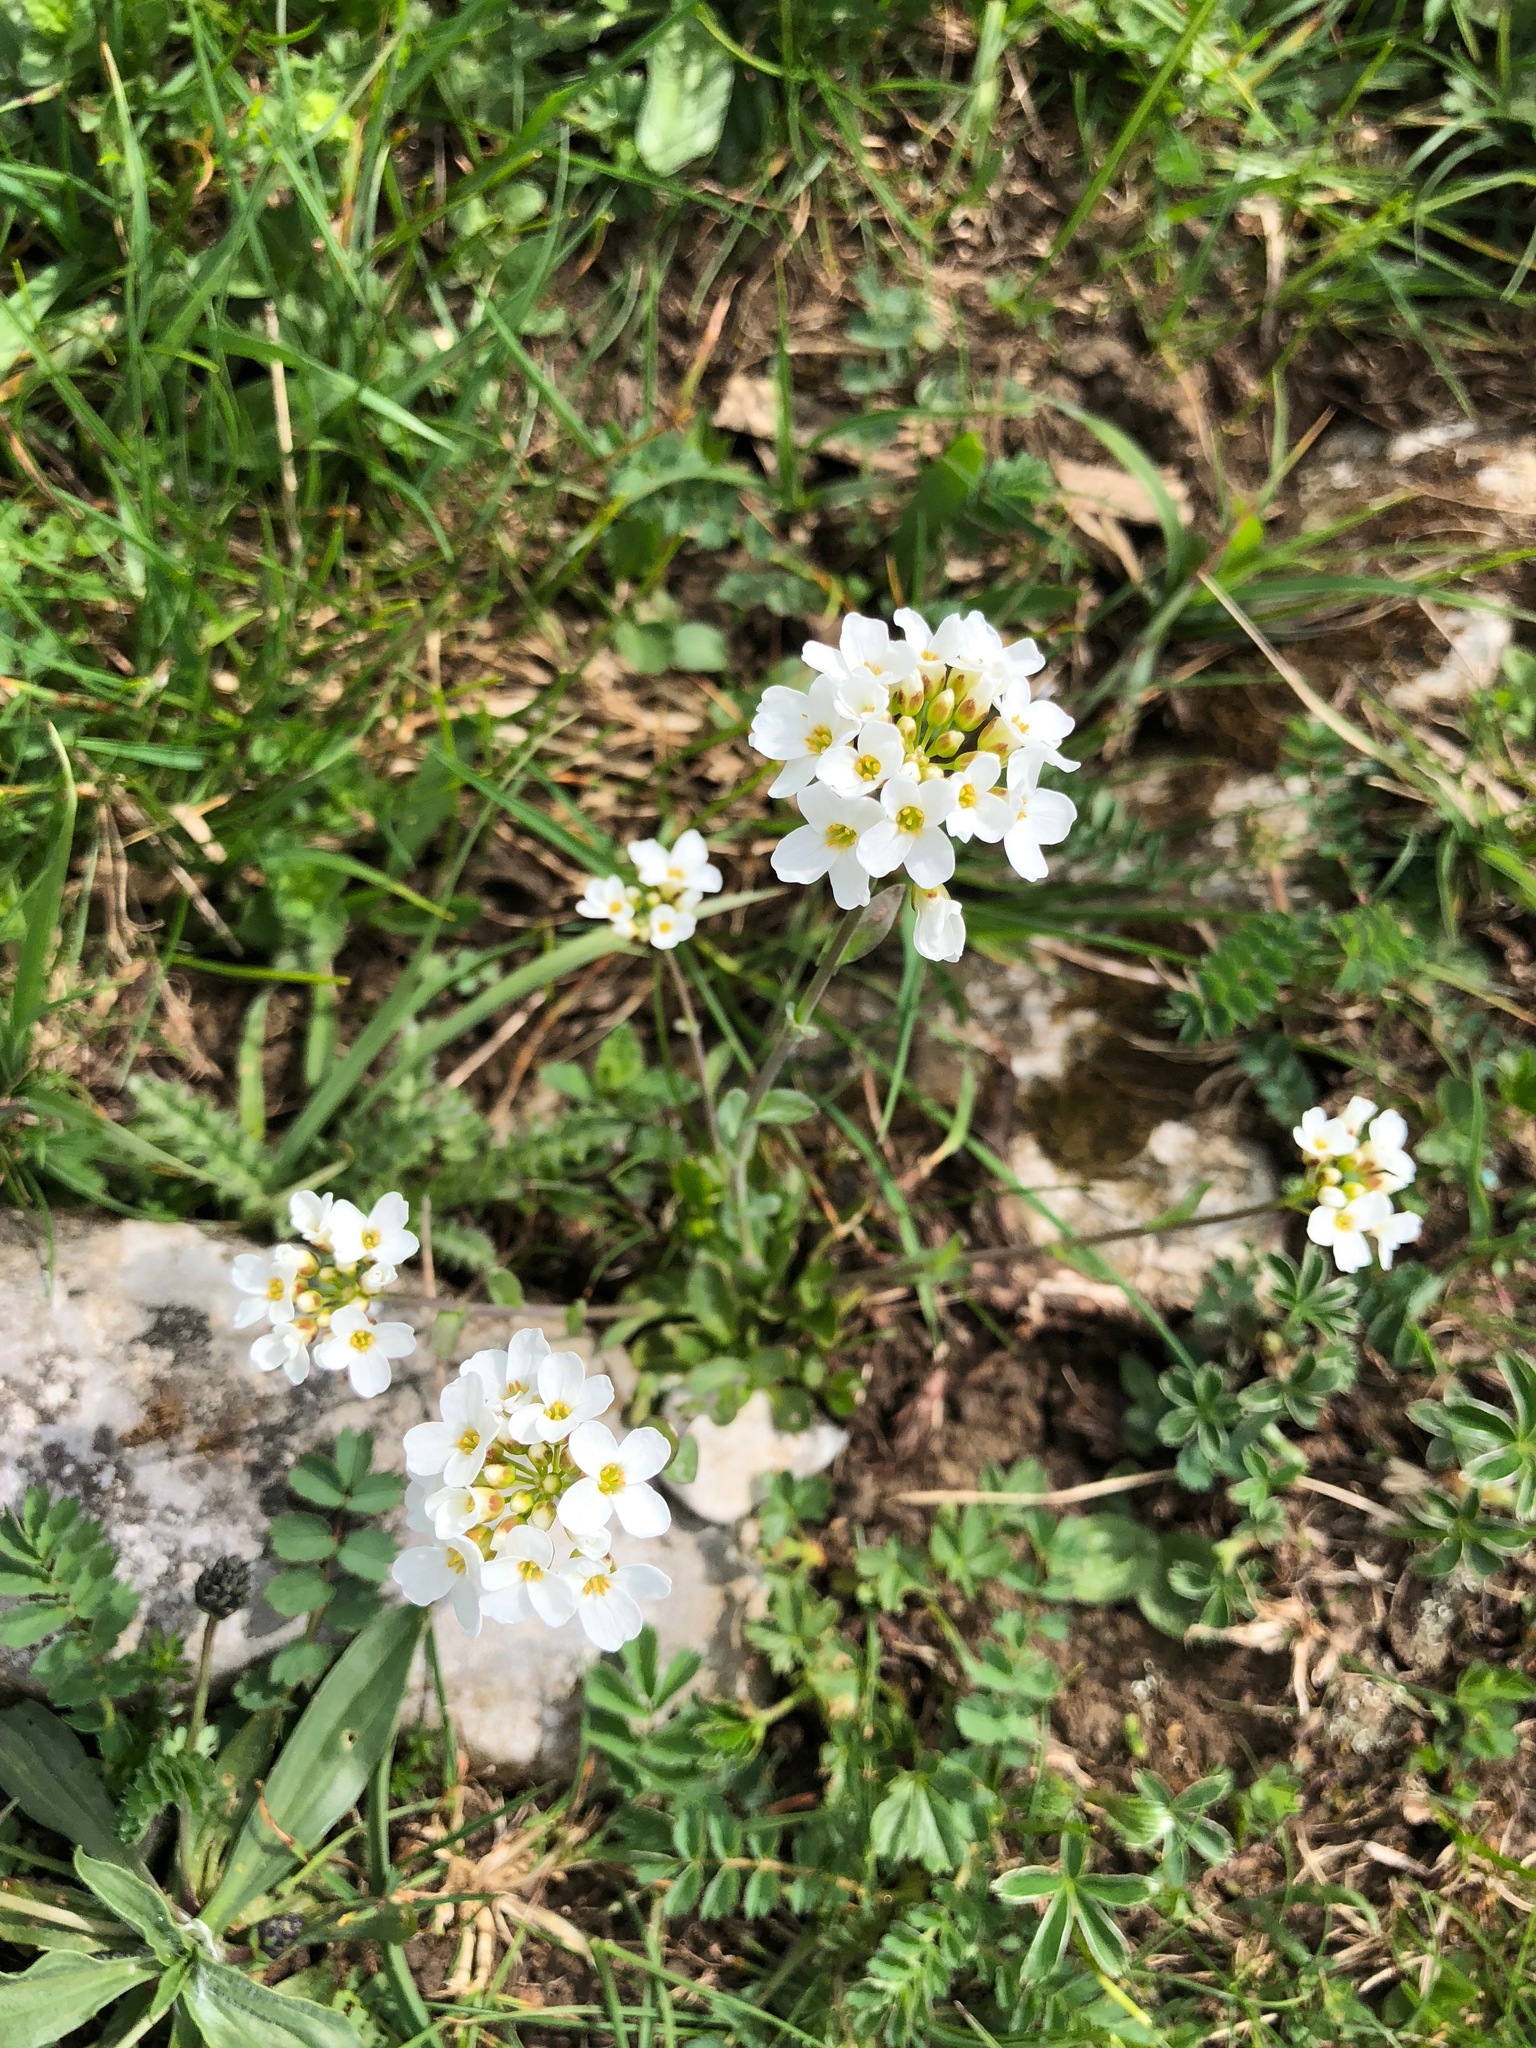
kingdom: Plantae
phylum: Tracheophyta
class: Magnoliopsida
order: Brassicales
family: Brassicaceae
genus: Noccaea
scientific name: Noccaea montana
